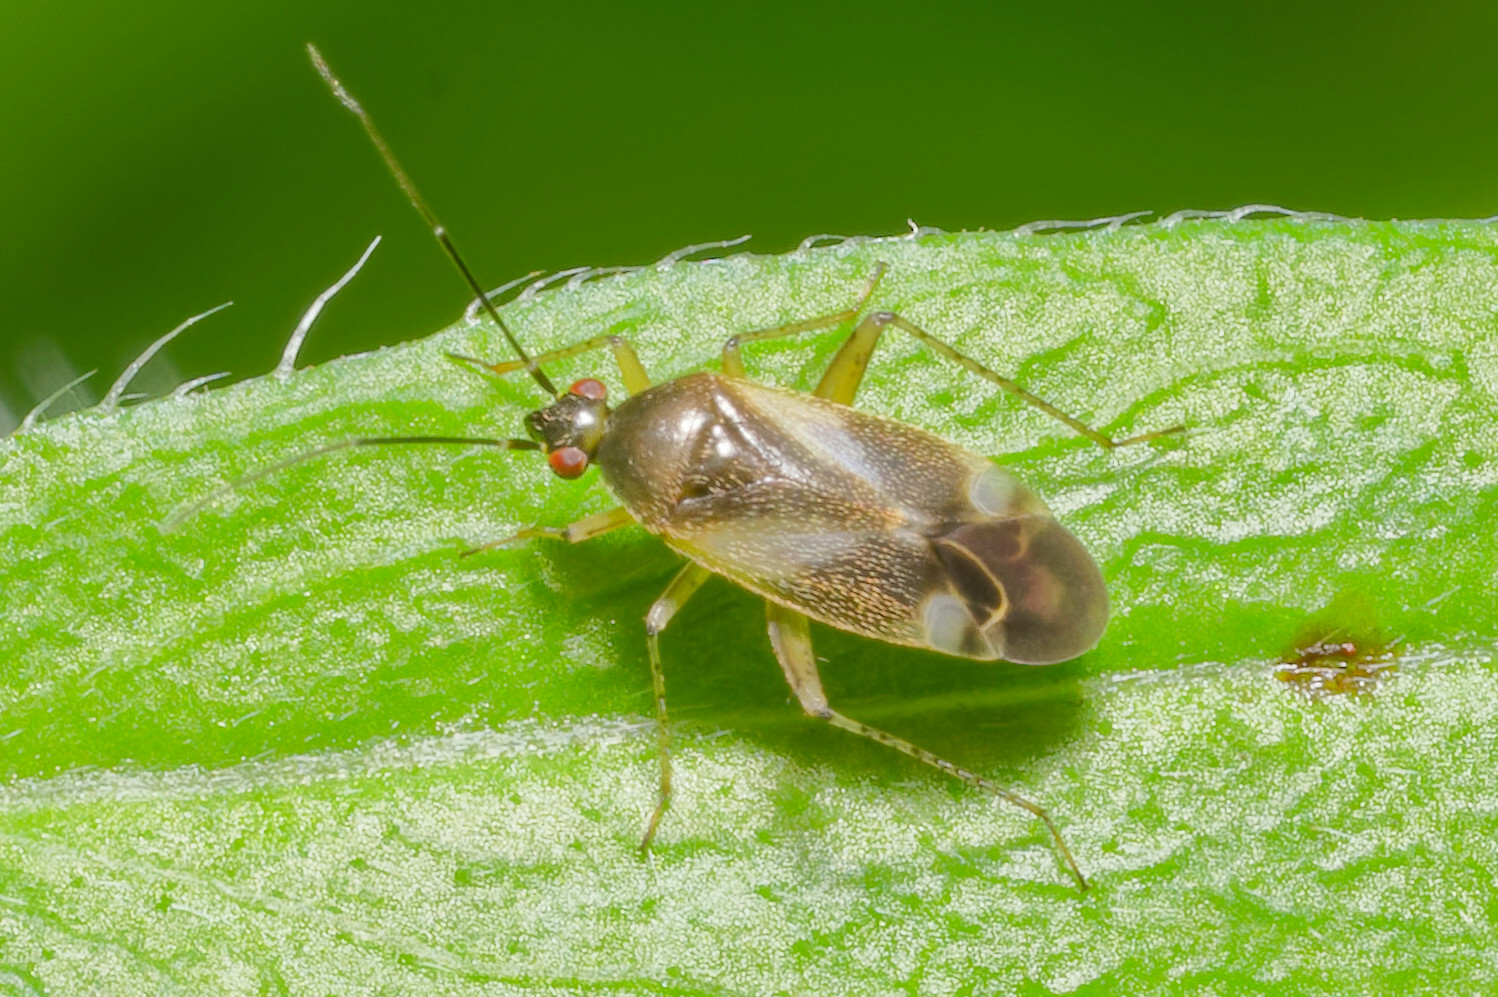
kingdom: Animalia
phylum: Arthropoda
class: Insecta
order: Hemiptera
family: Miridae
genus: Plagiognathus
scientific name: Plagiognathus obscurus
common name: Obscure plant bug
